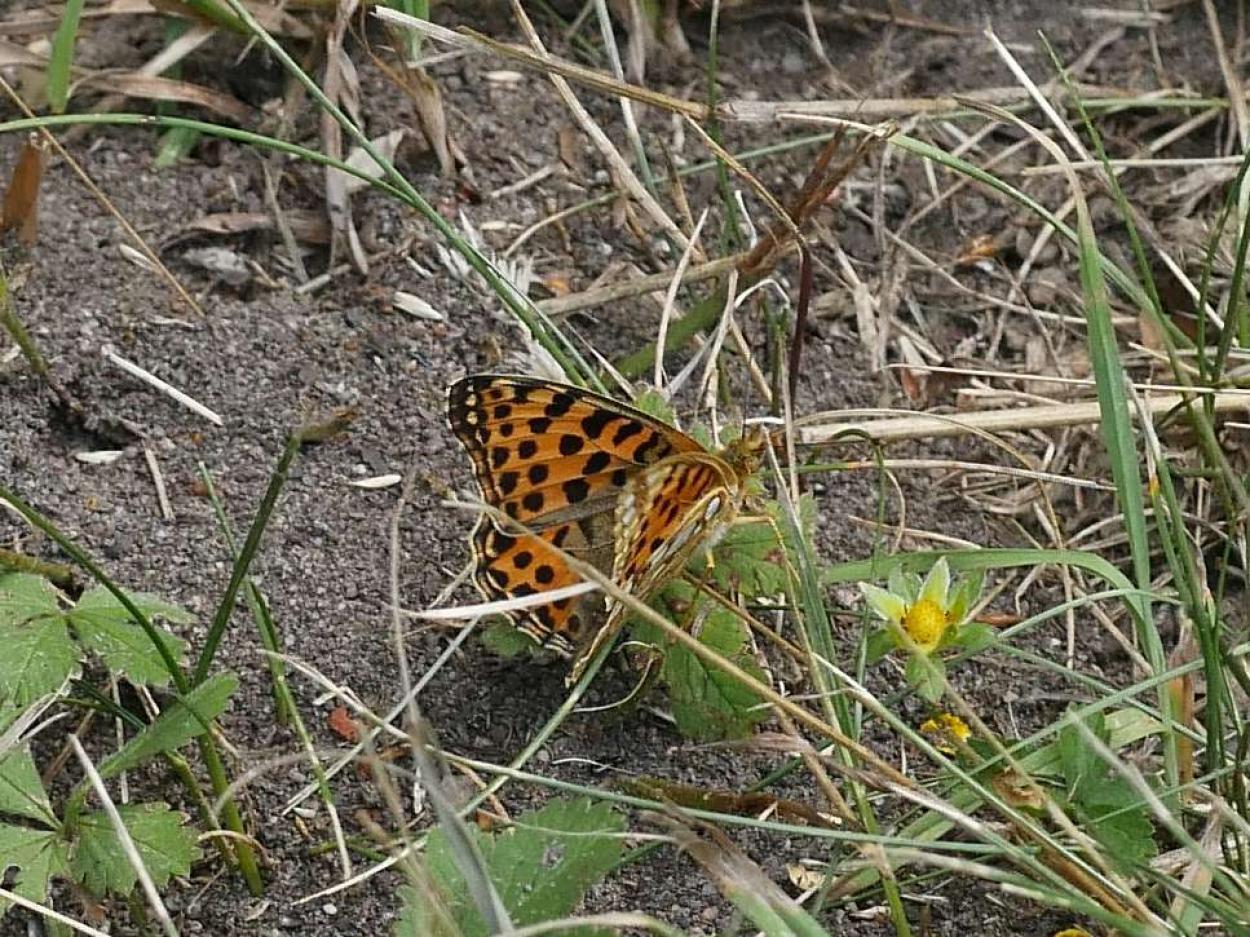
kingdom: Animalia
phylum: Arthropoda
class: Insecta
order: Lepidoptera
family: Nymphalidae
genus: Issoria
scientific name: Issoria lathonia
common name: Queen of spain fritillary
